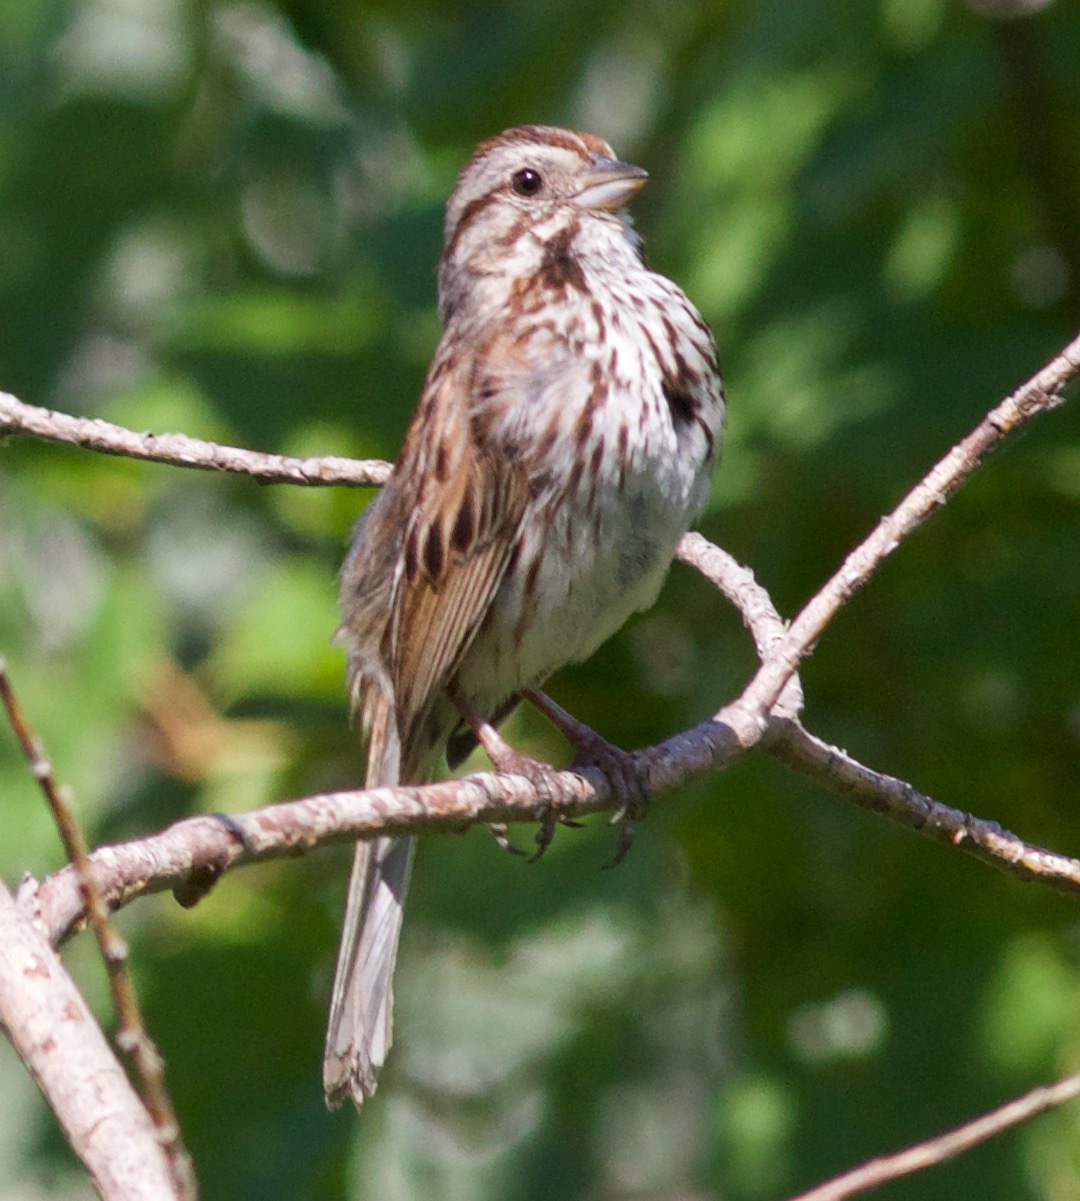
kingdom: Animalia
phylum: Chordata
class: Aves
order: Passeriformes
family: Passerellidae
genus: Melospiza
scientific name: Melospiza melodia
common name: Song sparrow
